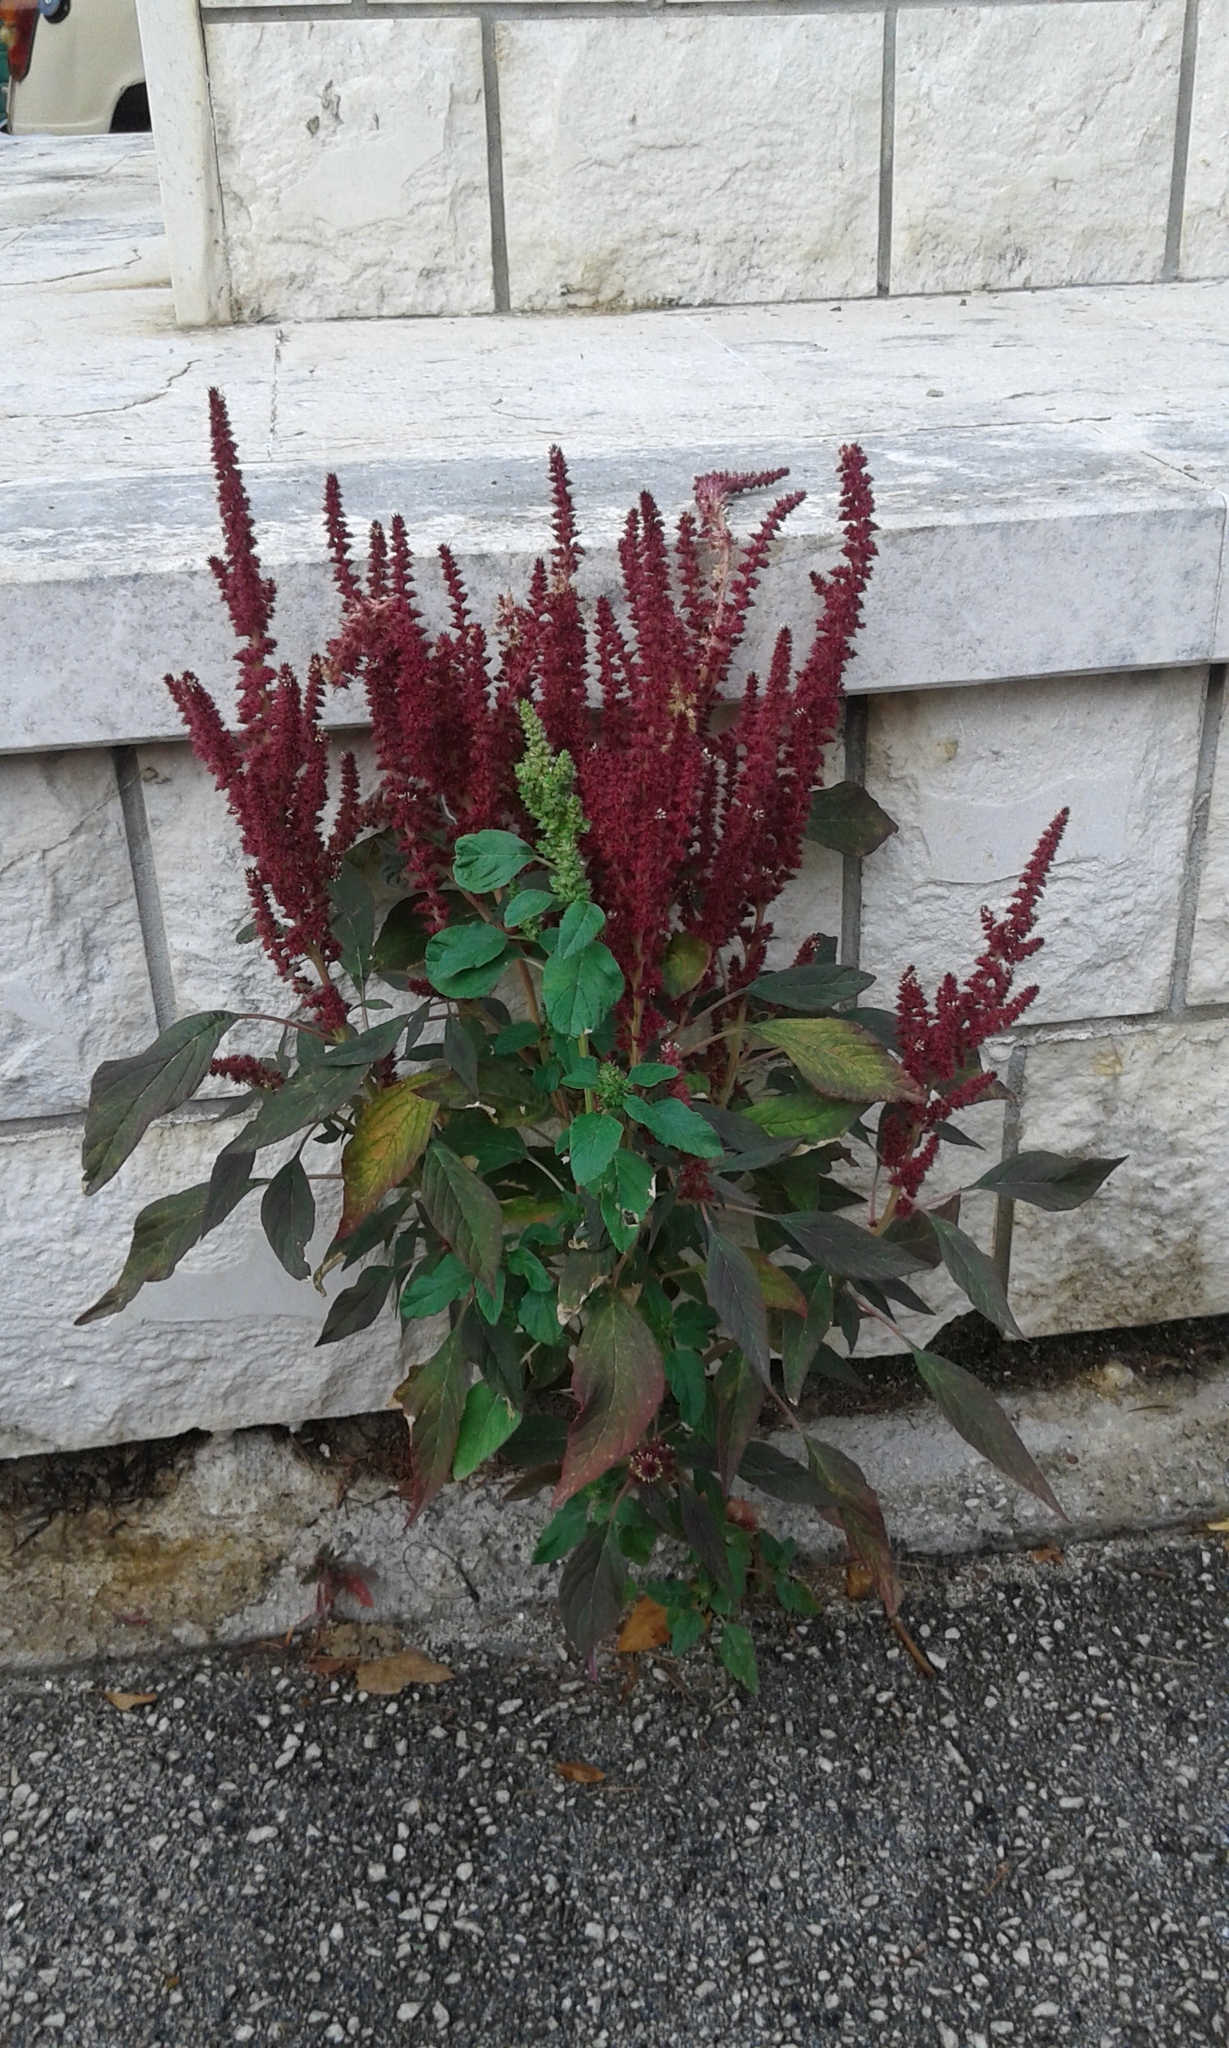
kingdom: Plantae
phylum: Tracheophyta
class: Magnoliopsida
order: Caryophyllales
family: Amaranthaceae
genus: Amaranthus
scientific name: Amaranthus cruentus
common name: Purple amaranth
